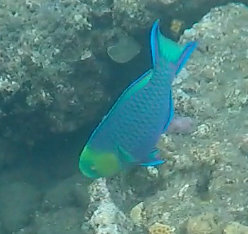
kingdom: Animalia
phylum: Chordata
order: Perciformes
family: Scaridae
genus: Scarus
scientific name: Scarus spinus
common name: Greensnout parrotfish
